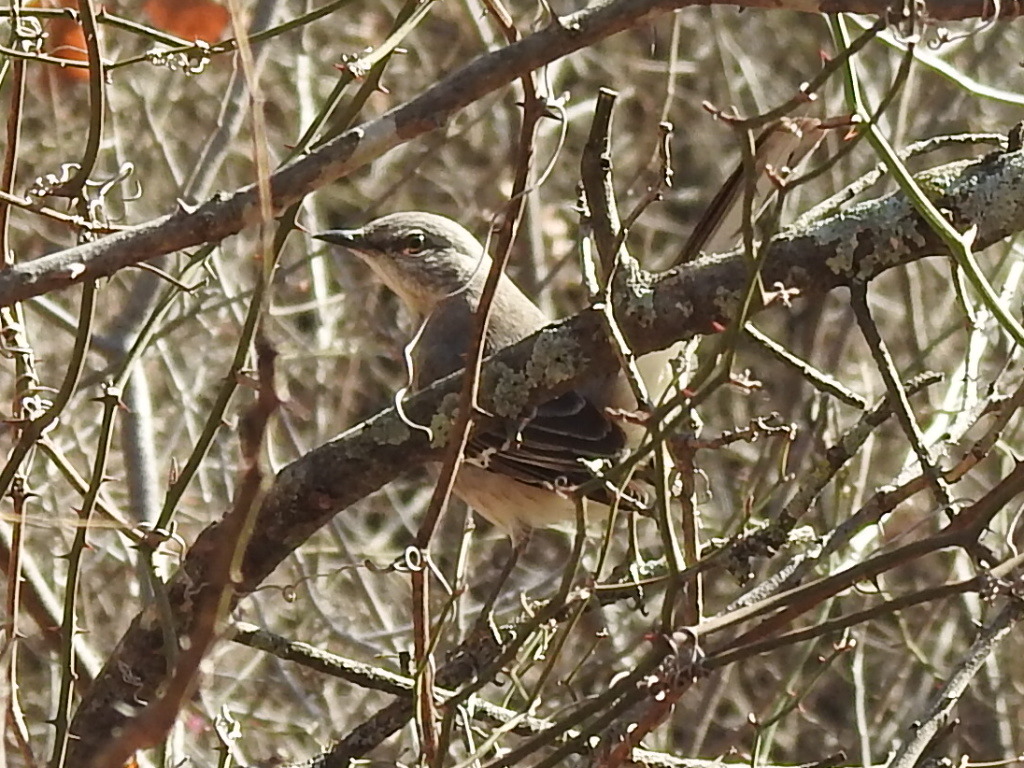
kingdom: Animalia
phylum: Chordata
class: Aves
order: Passeriformes
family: Mimidae
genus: Mimus
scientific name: Mimus polyglottos
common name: Northern mockingbird
